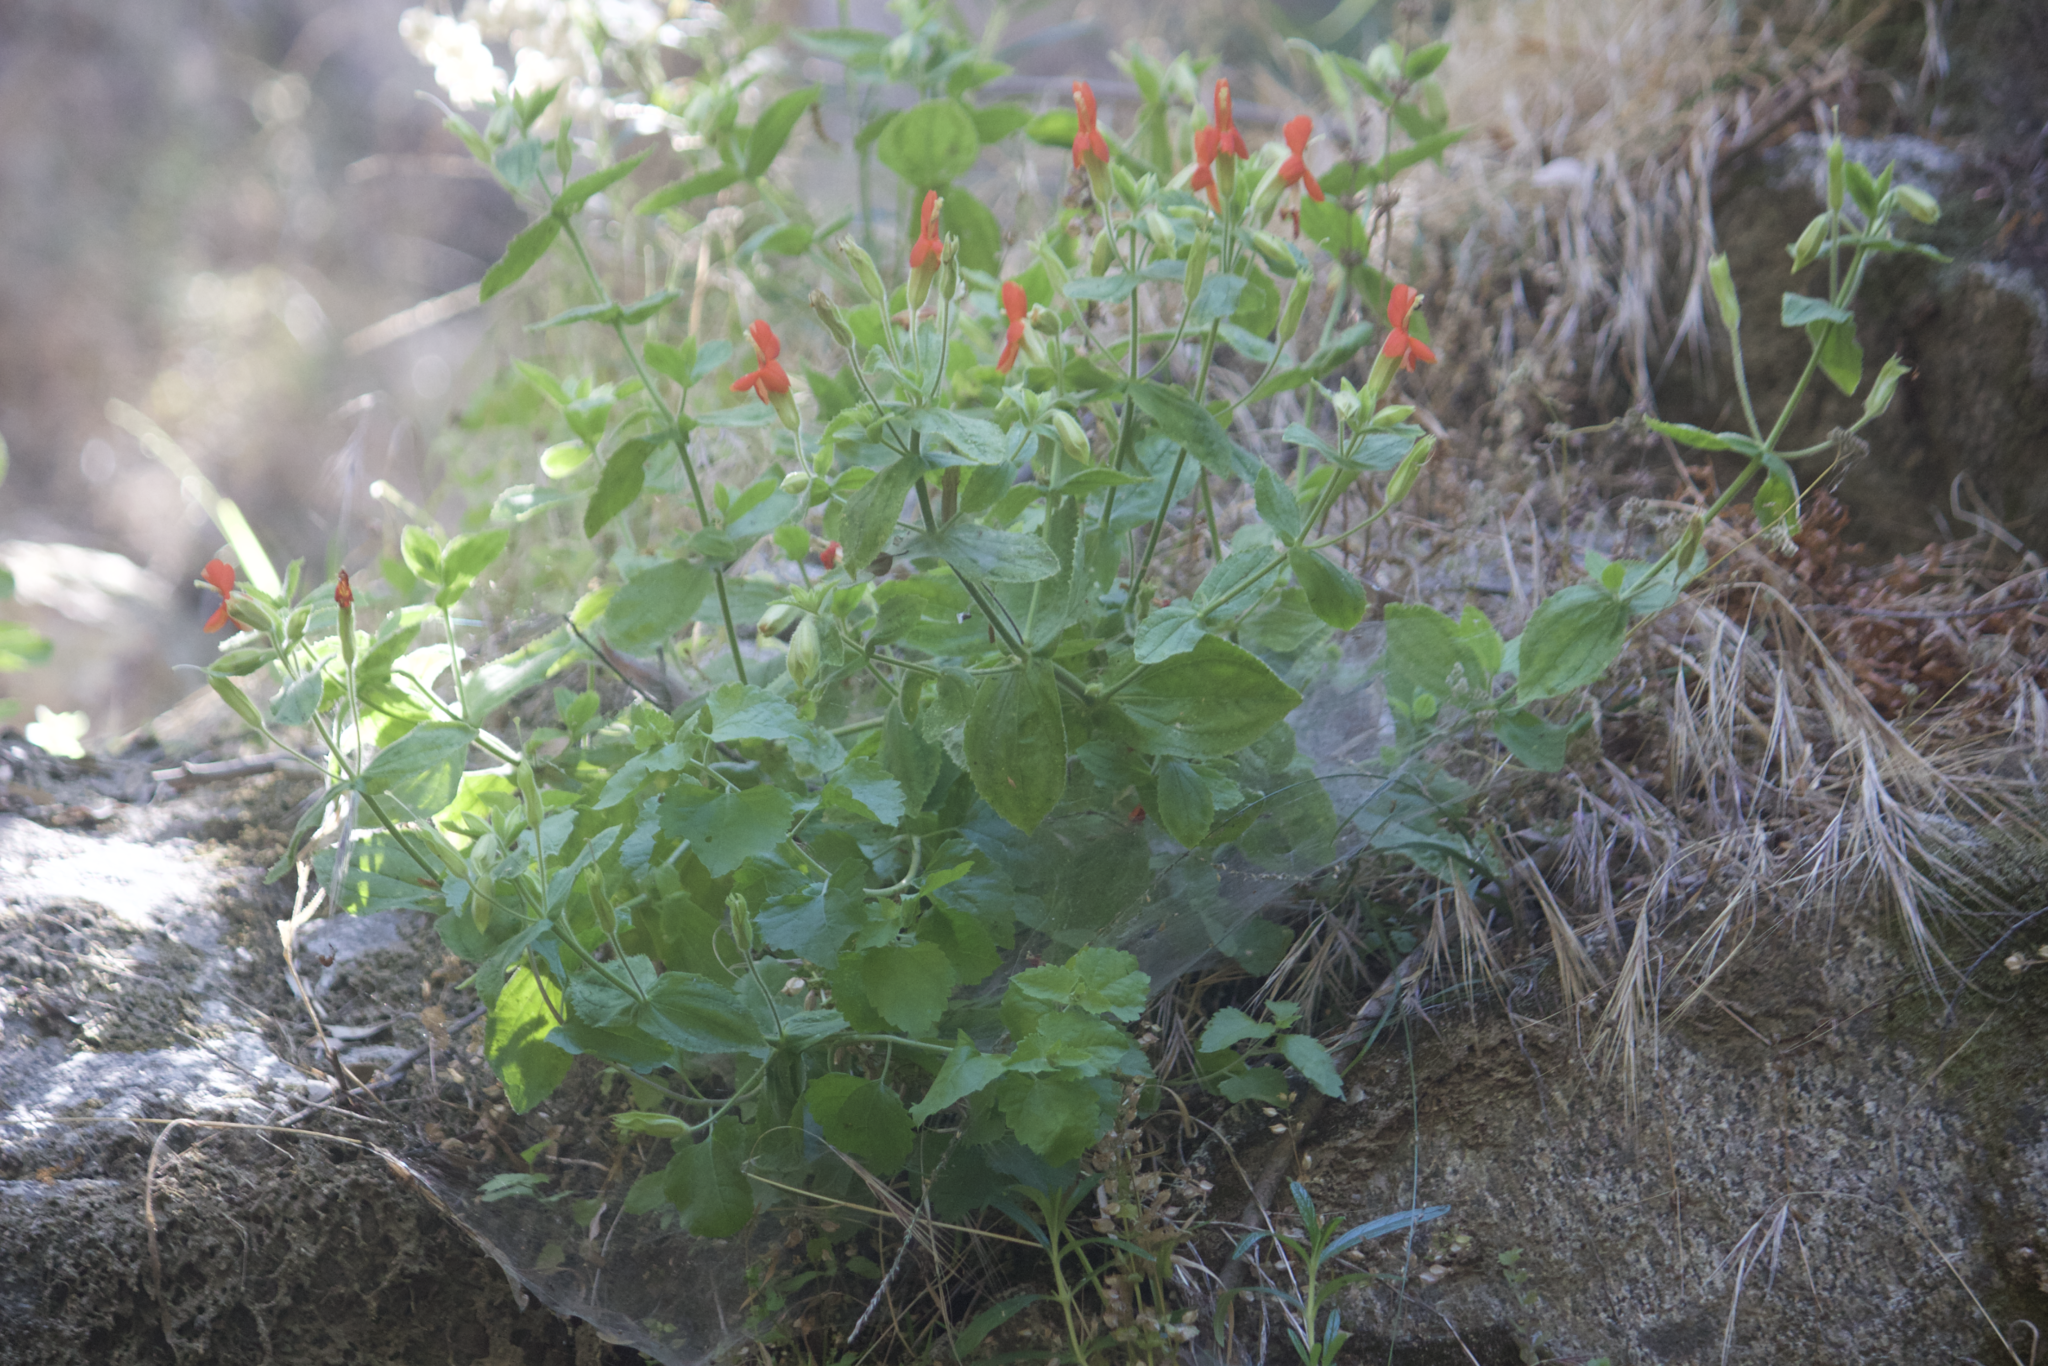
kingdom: Plantae
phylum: Tracheophyta
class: Magnoliopsida
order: Lamiales
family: Phrymaceae
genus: Erythranthe
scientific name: Erythranthe cardinalis
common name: Scarlet monkey-flower
